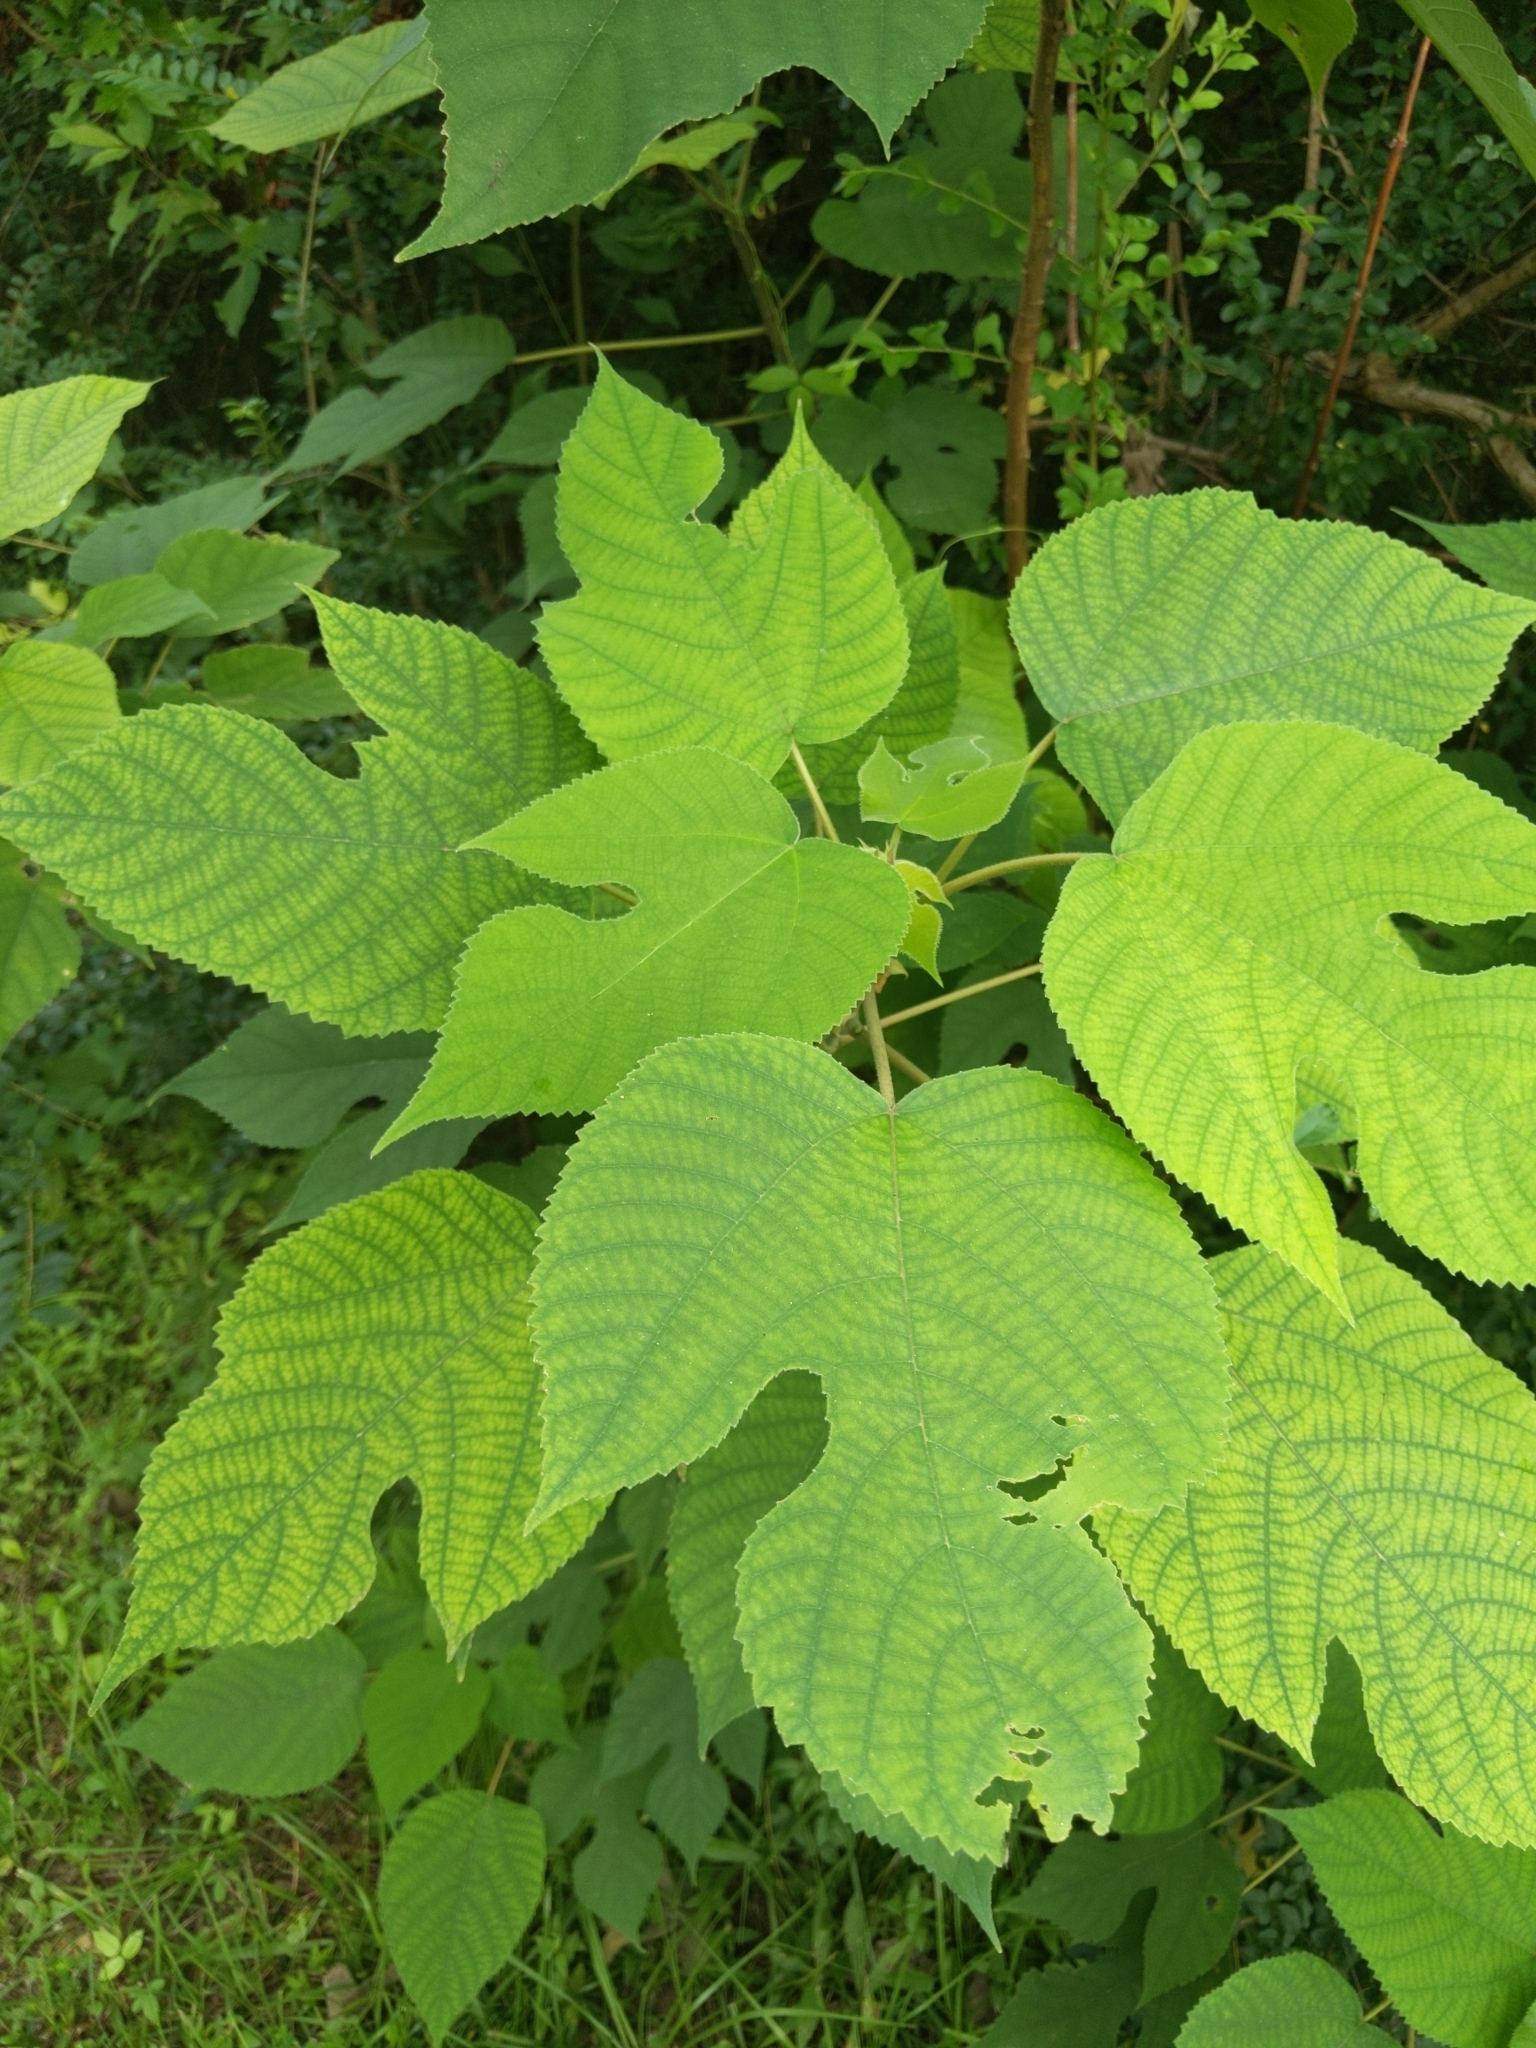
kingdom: Plantae
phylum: Tracheophyta
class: Magnoliopsida
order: Rosales
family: Moraceae
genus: Broussonetia
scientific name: Broussonetia papyrifera
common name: Paper mulberry
